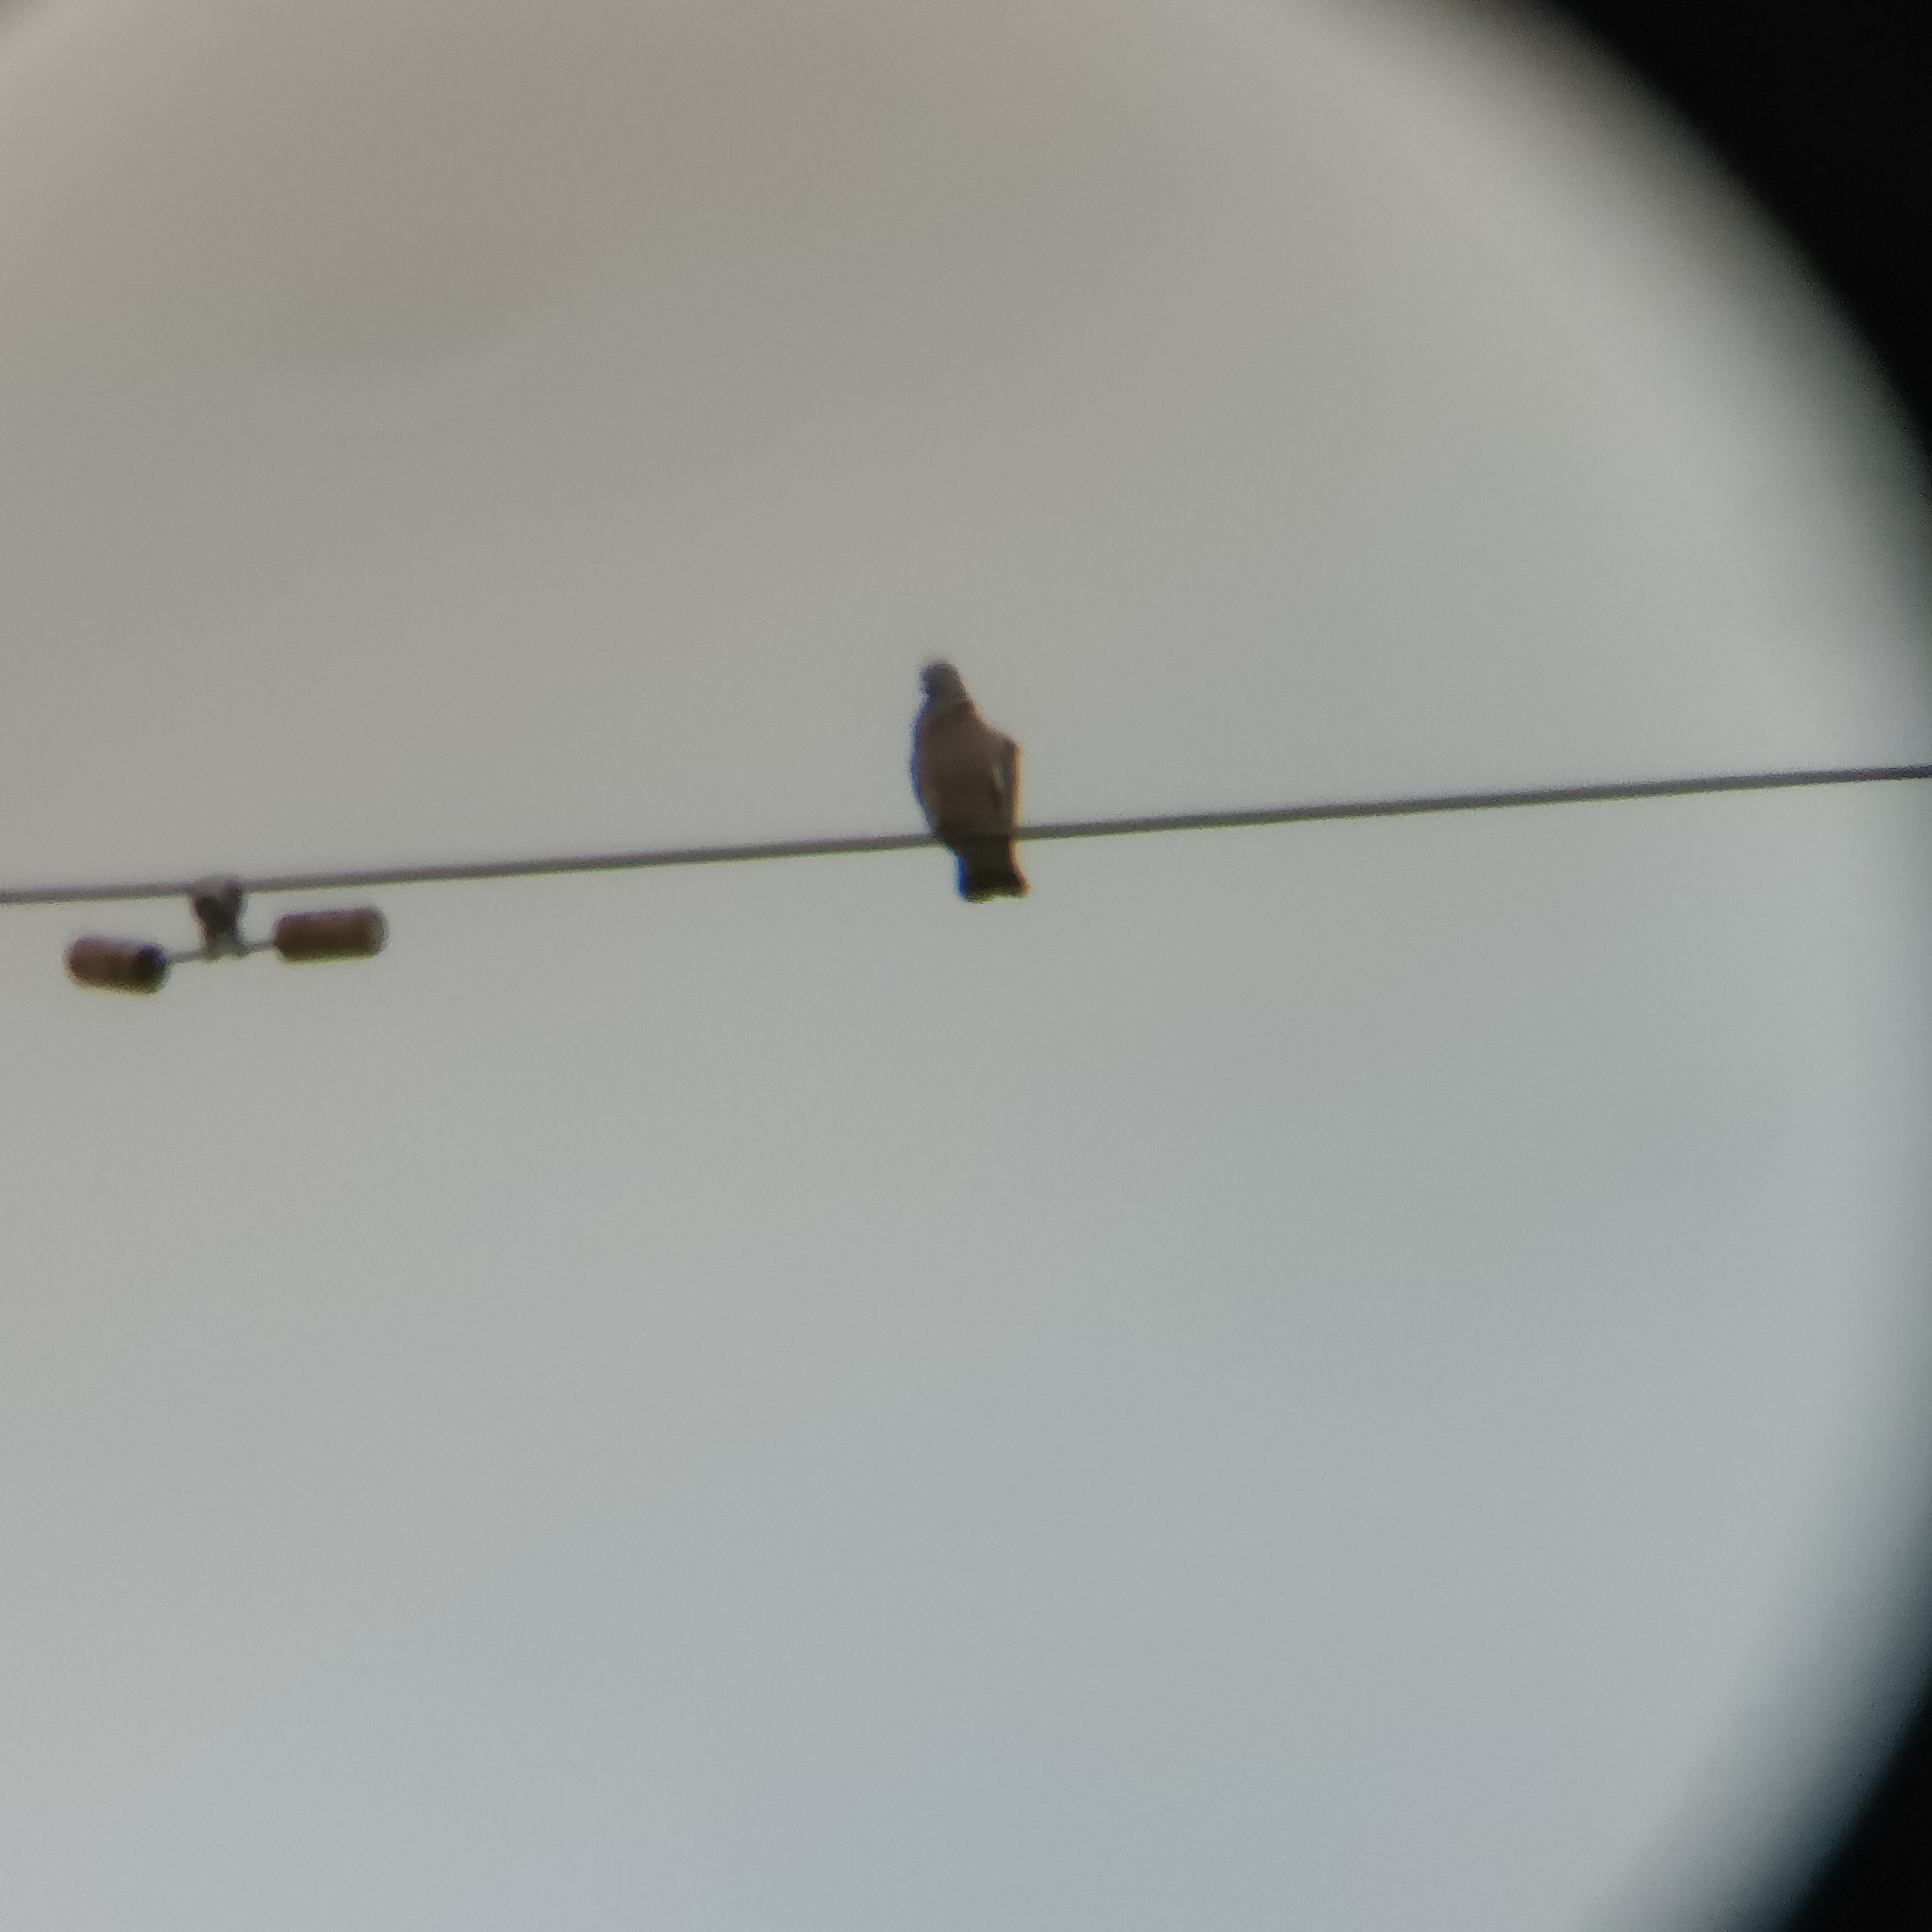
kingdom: Animalia
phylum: Chordata
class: Aves
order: Columbiformes
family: Columbidae
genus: Columba
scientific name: Columba palumbus
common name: Common wood pigeon
